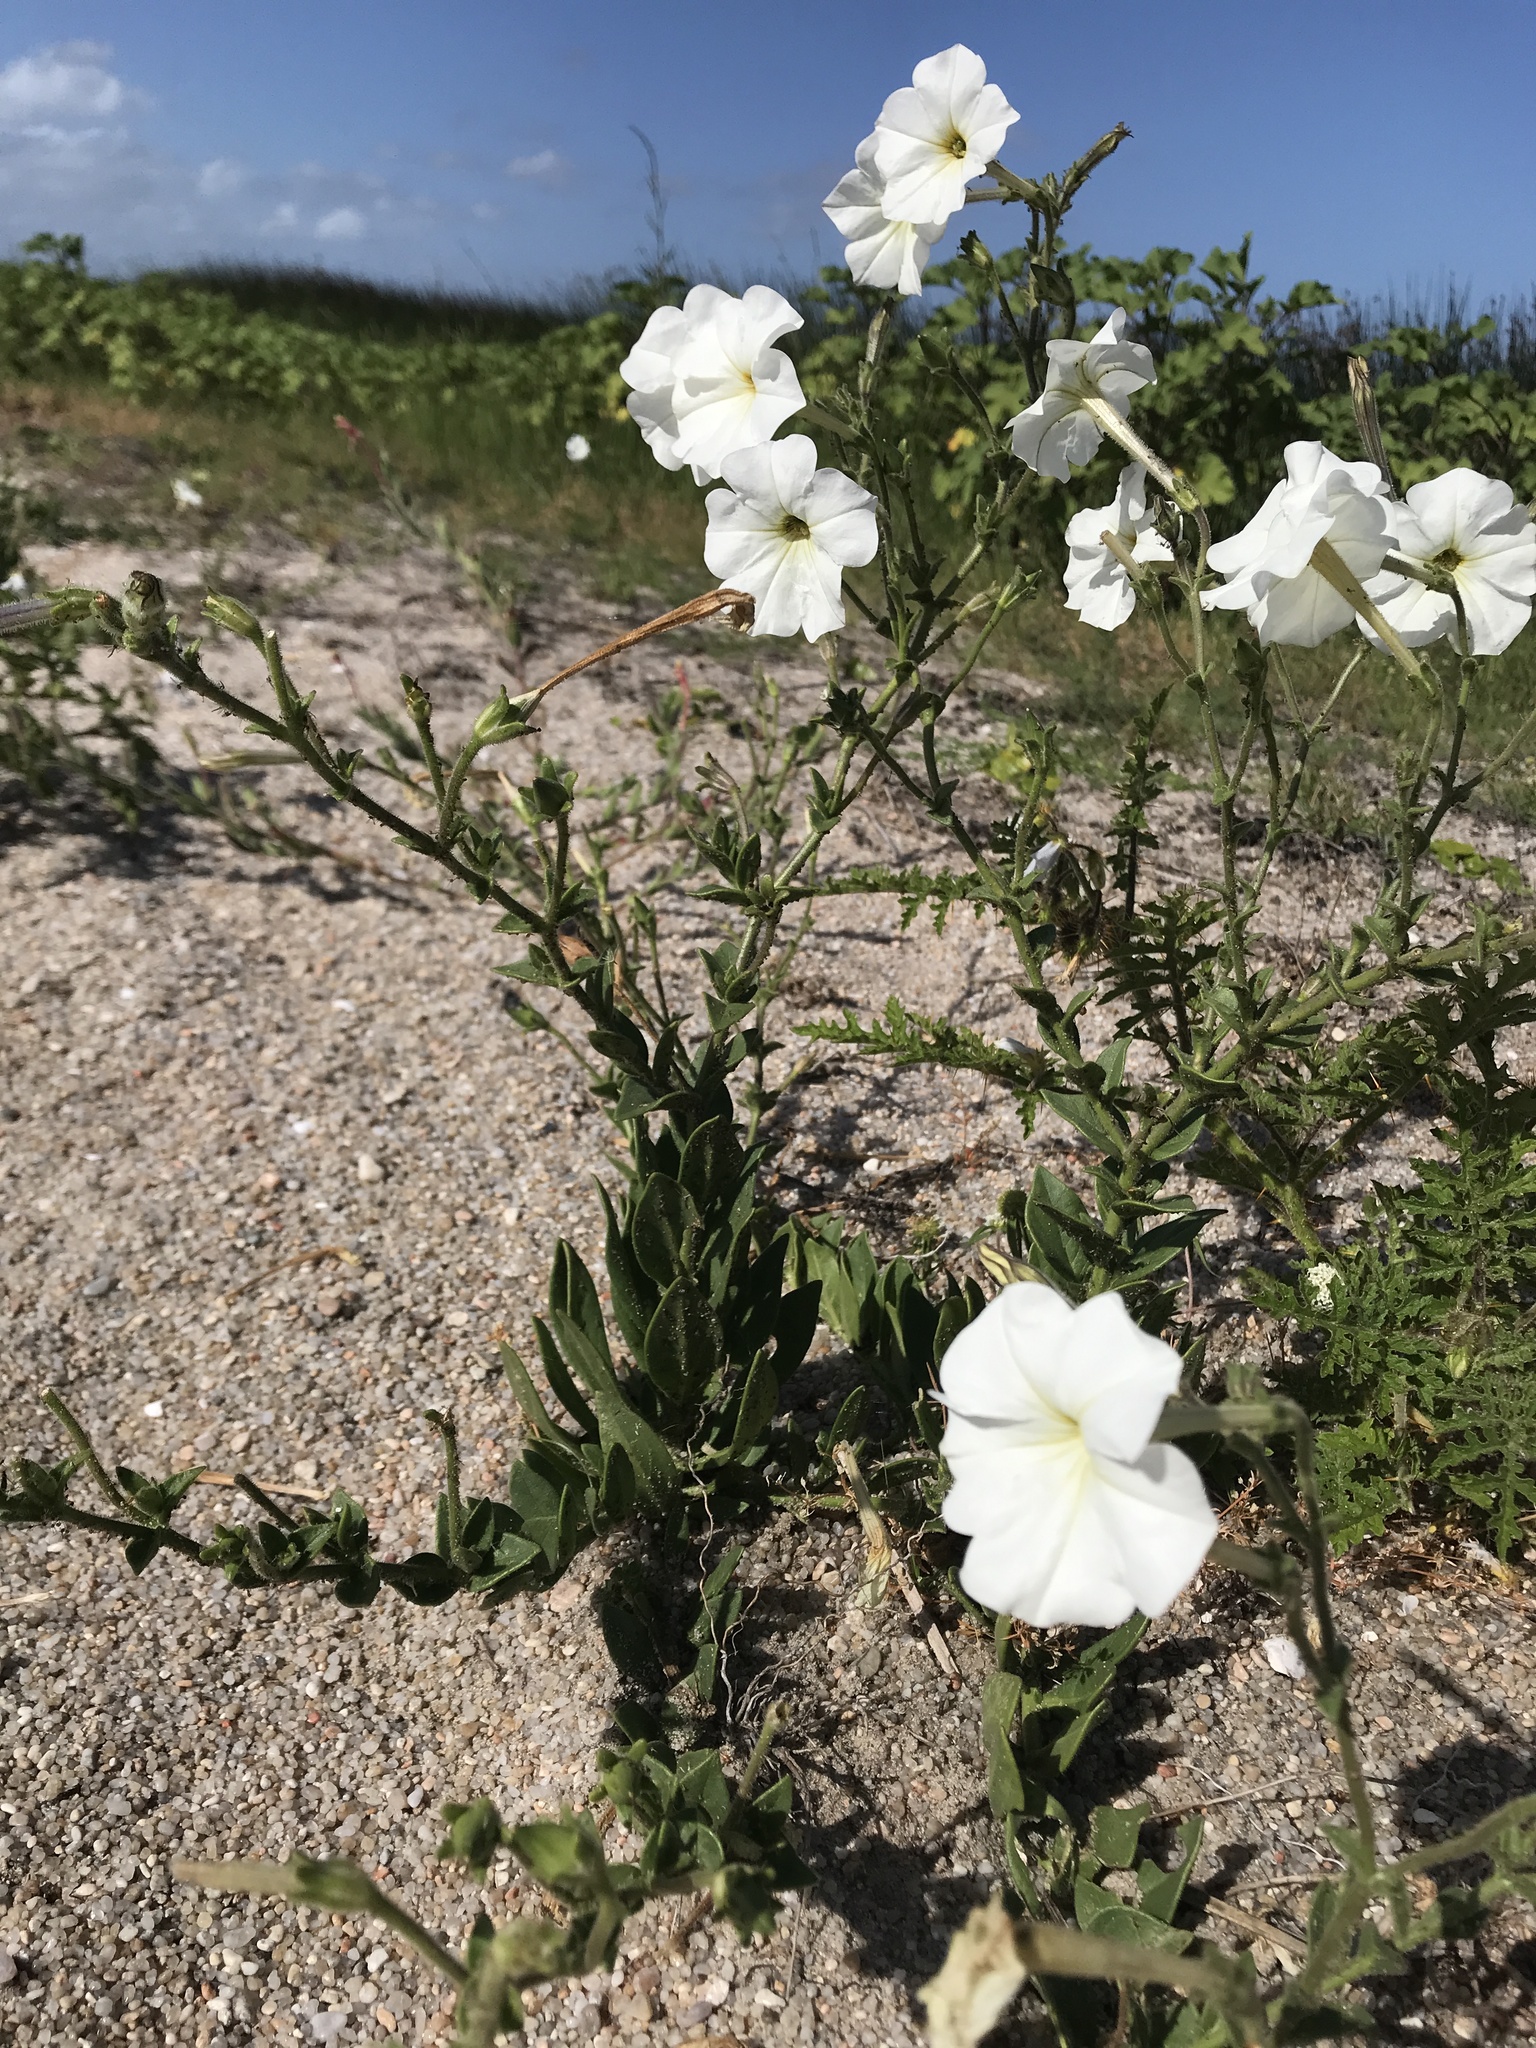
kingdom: Plantae
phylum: Tracheophyta
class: Magnoliopsida
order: Solanales
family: Solanaceae
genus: Petunia
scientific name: Petunia axillaris
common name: Large white petunia
